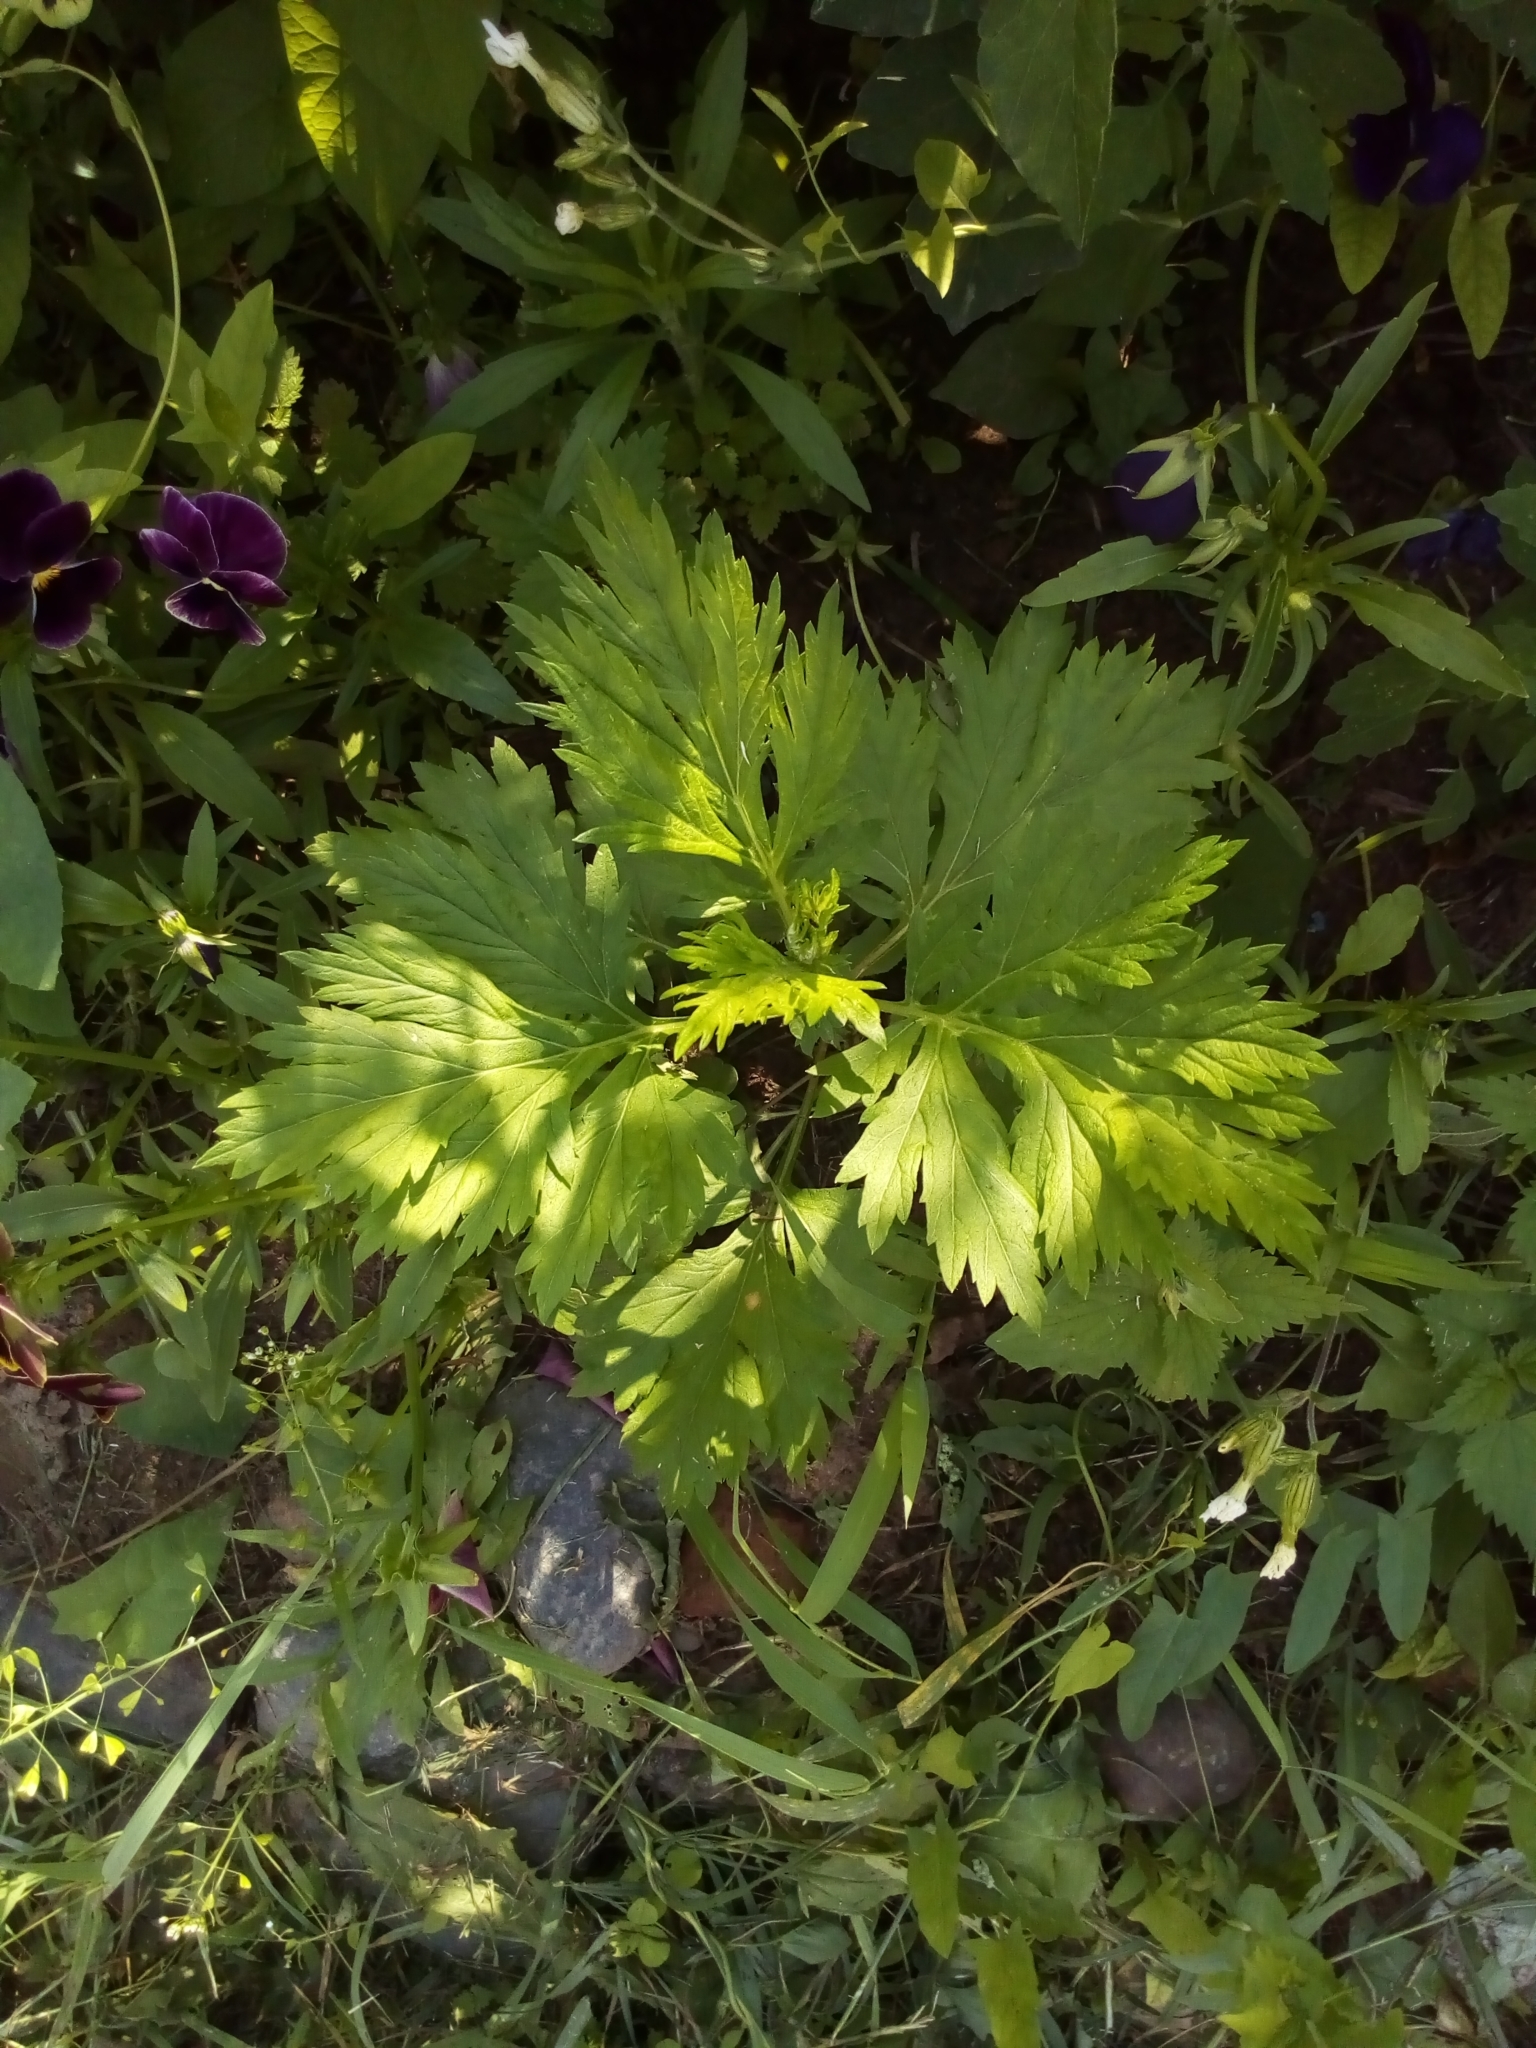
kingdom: Plantae
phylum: Tracheophyta
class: Magnoliopsida
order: Asterales
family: Asteraceae
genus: Artemisia
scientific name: Artemisia vulgaris
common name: Mugwort
